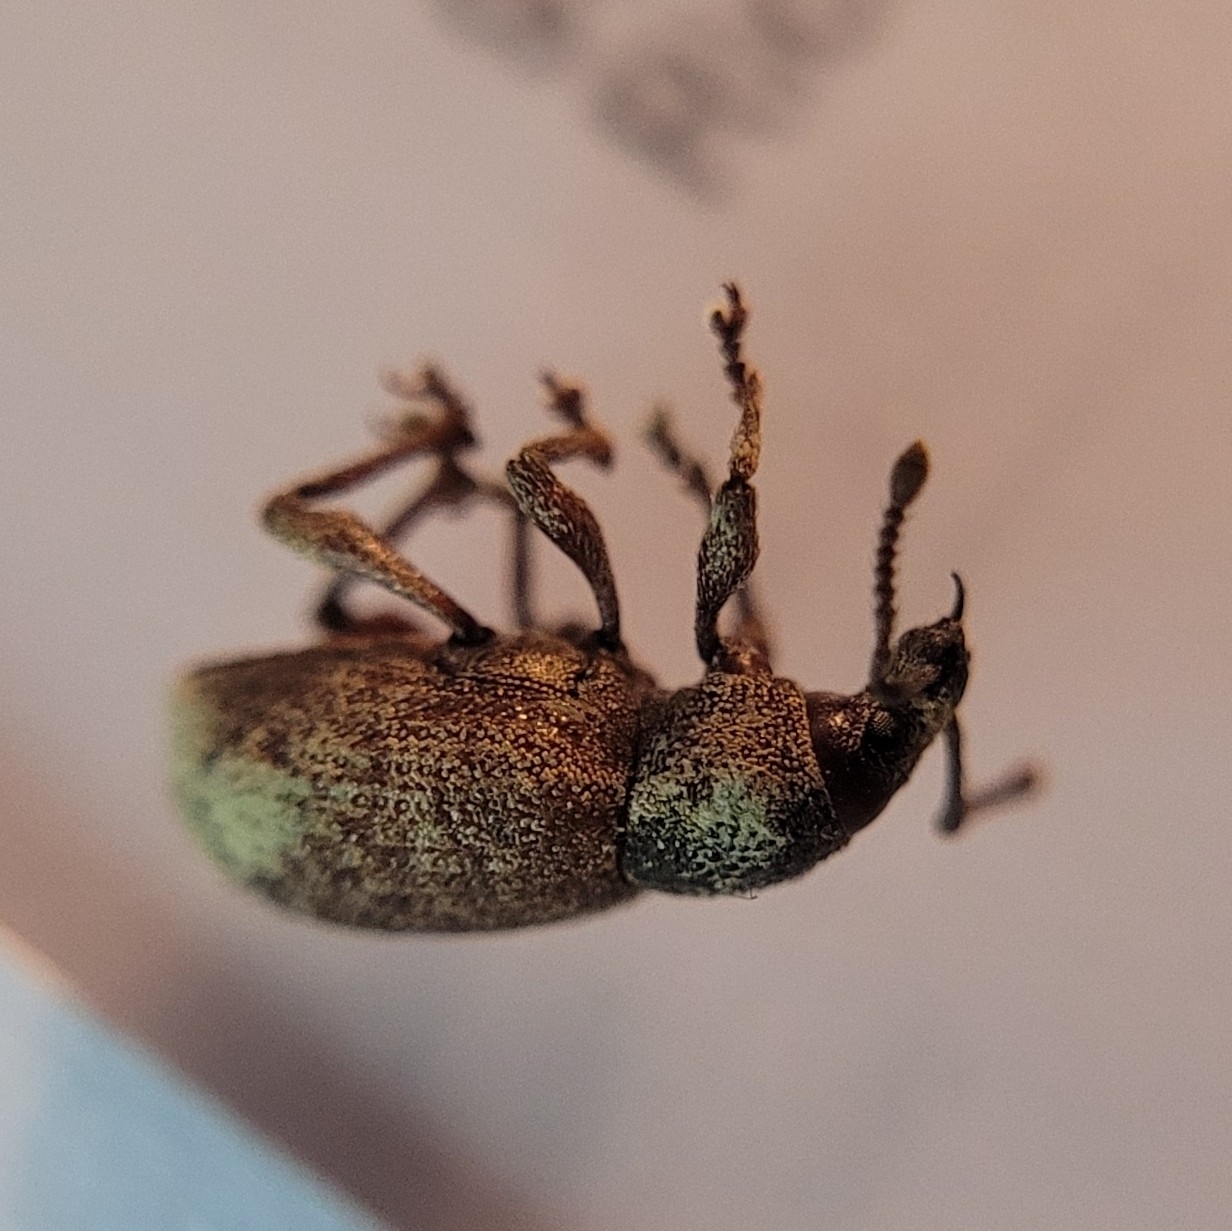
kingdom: Animalia
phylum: Arthropoda
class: Insecta
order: Coleoptera
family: Curculionidae
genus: Otiorhynchus
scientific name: Otiorhynchus singularis
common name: Clay-coloured weevil
